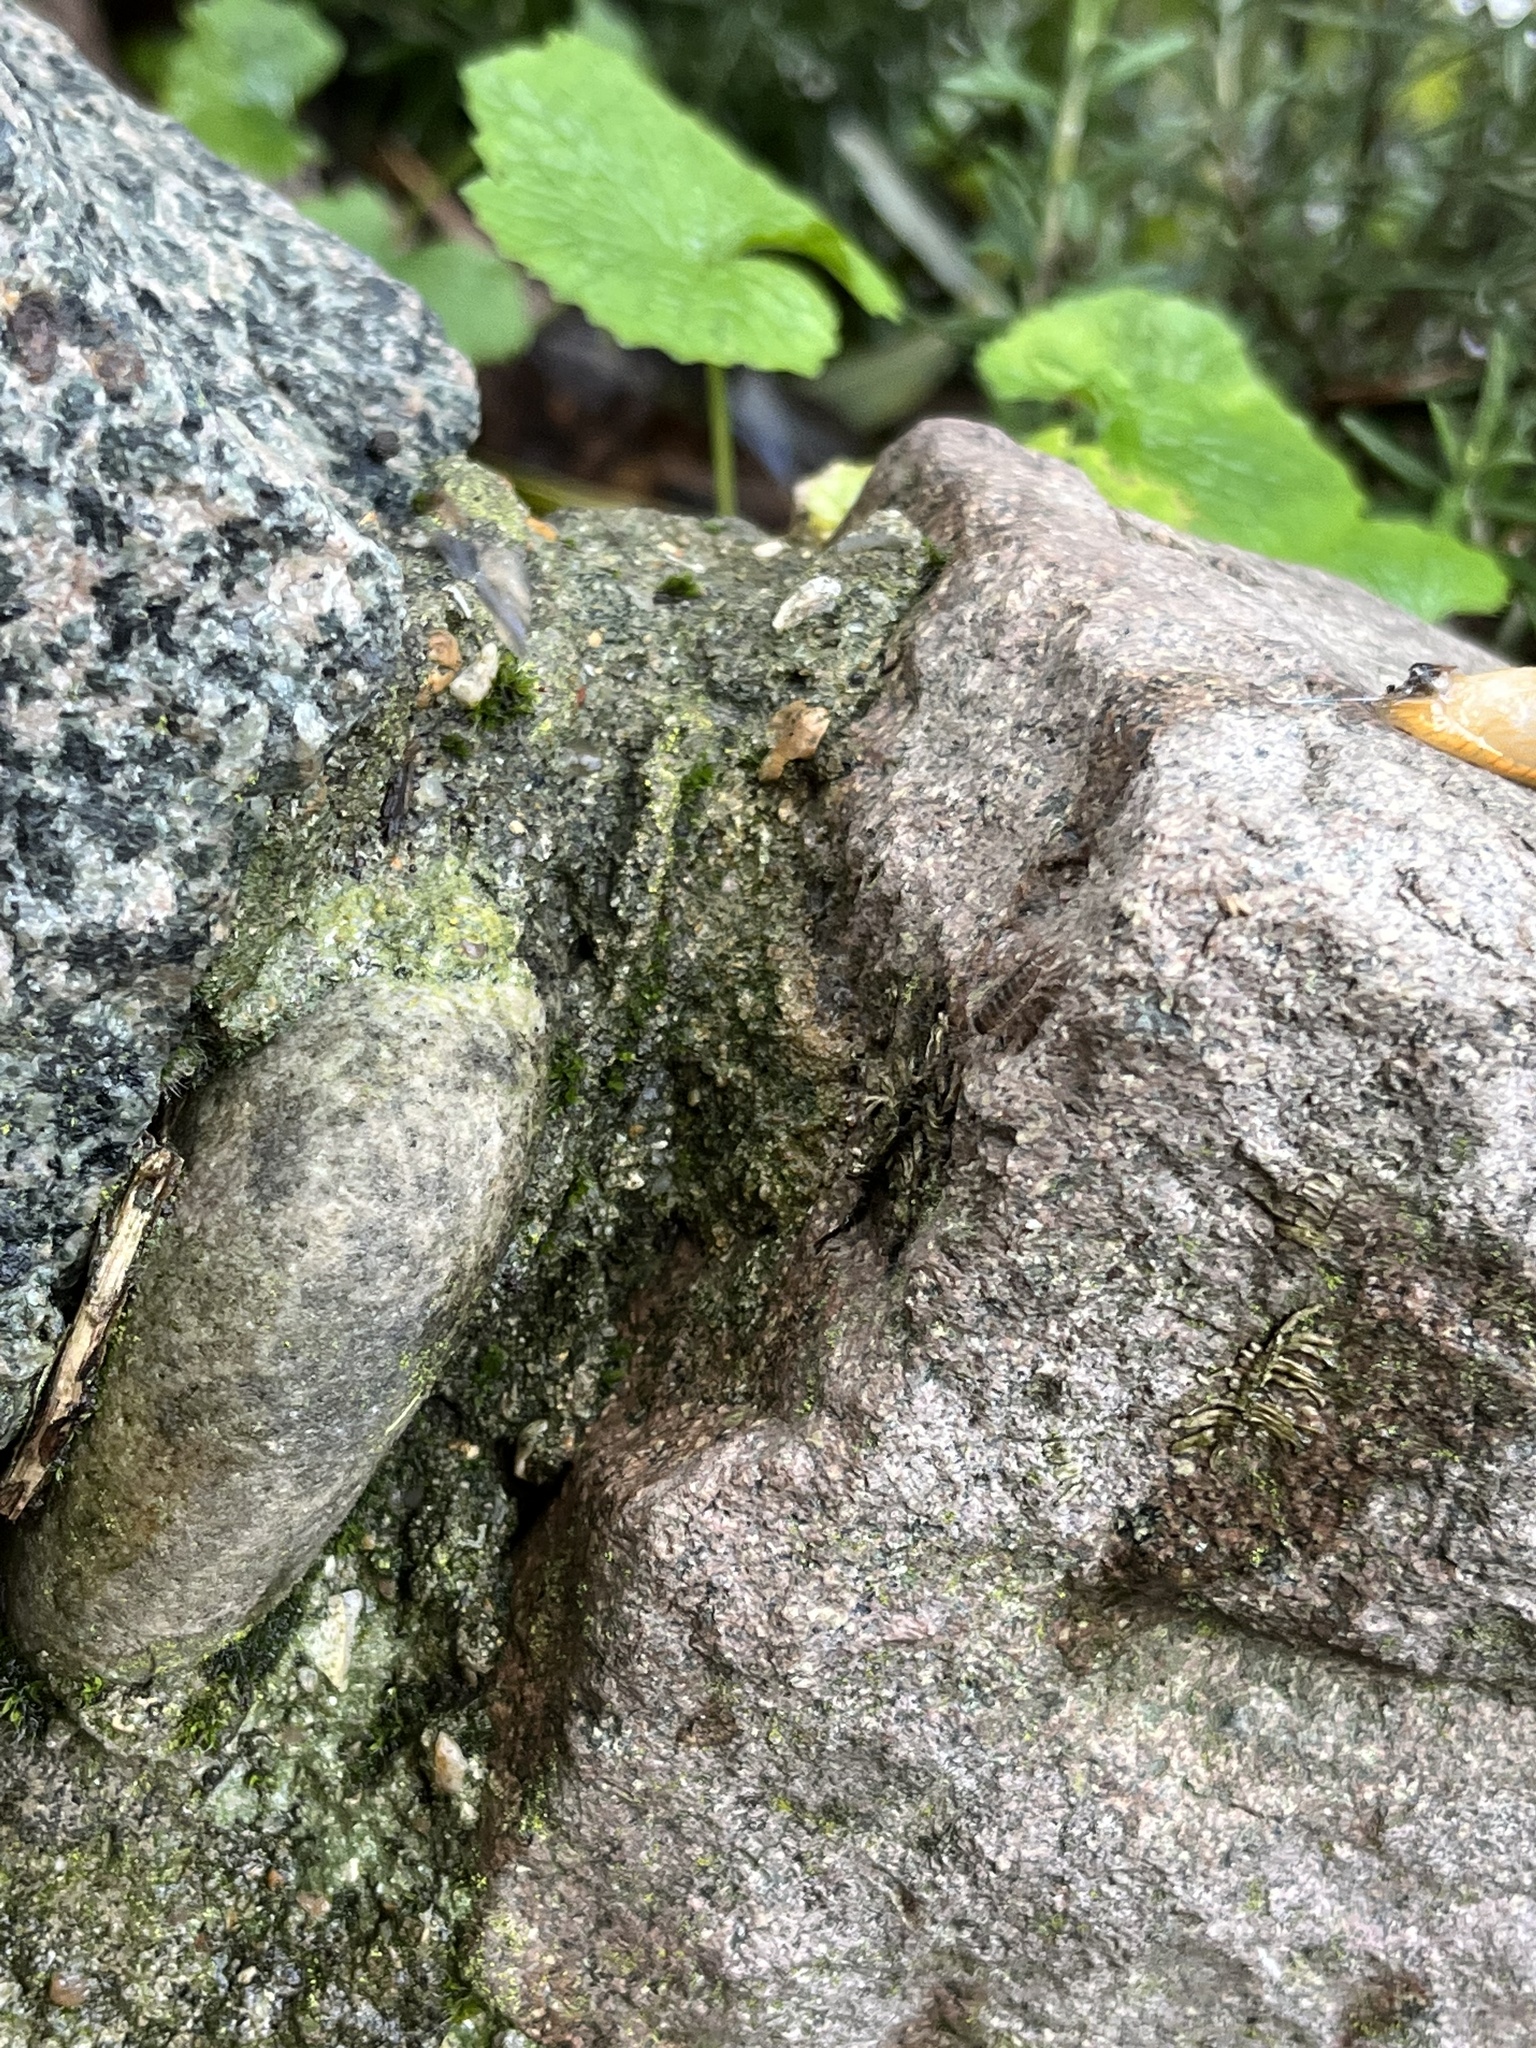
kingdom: Animalia
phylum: Arthropoda
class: Malacostraca
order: Isopoda
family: Philosciidae
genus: Philoscia
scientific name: Philoscia muscorum
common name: Common striped woodlouse
